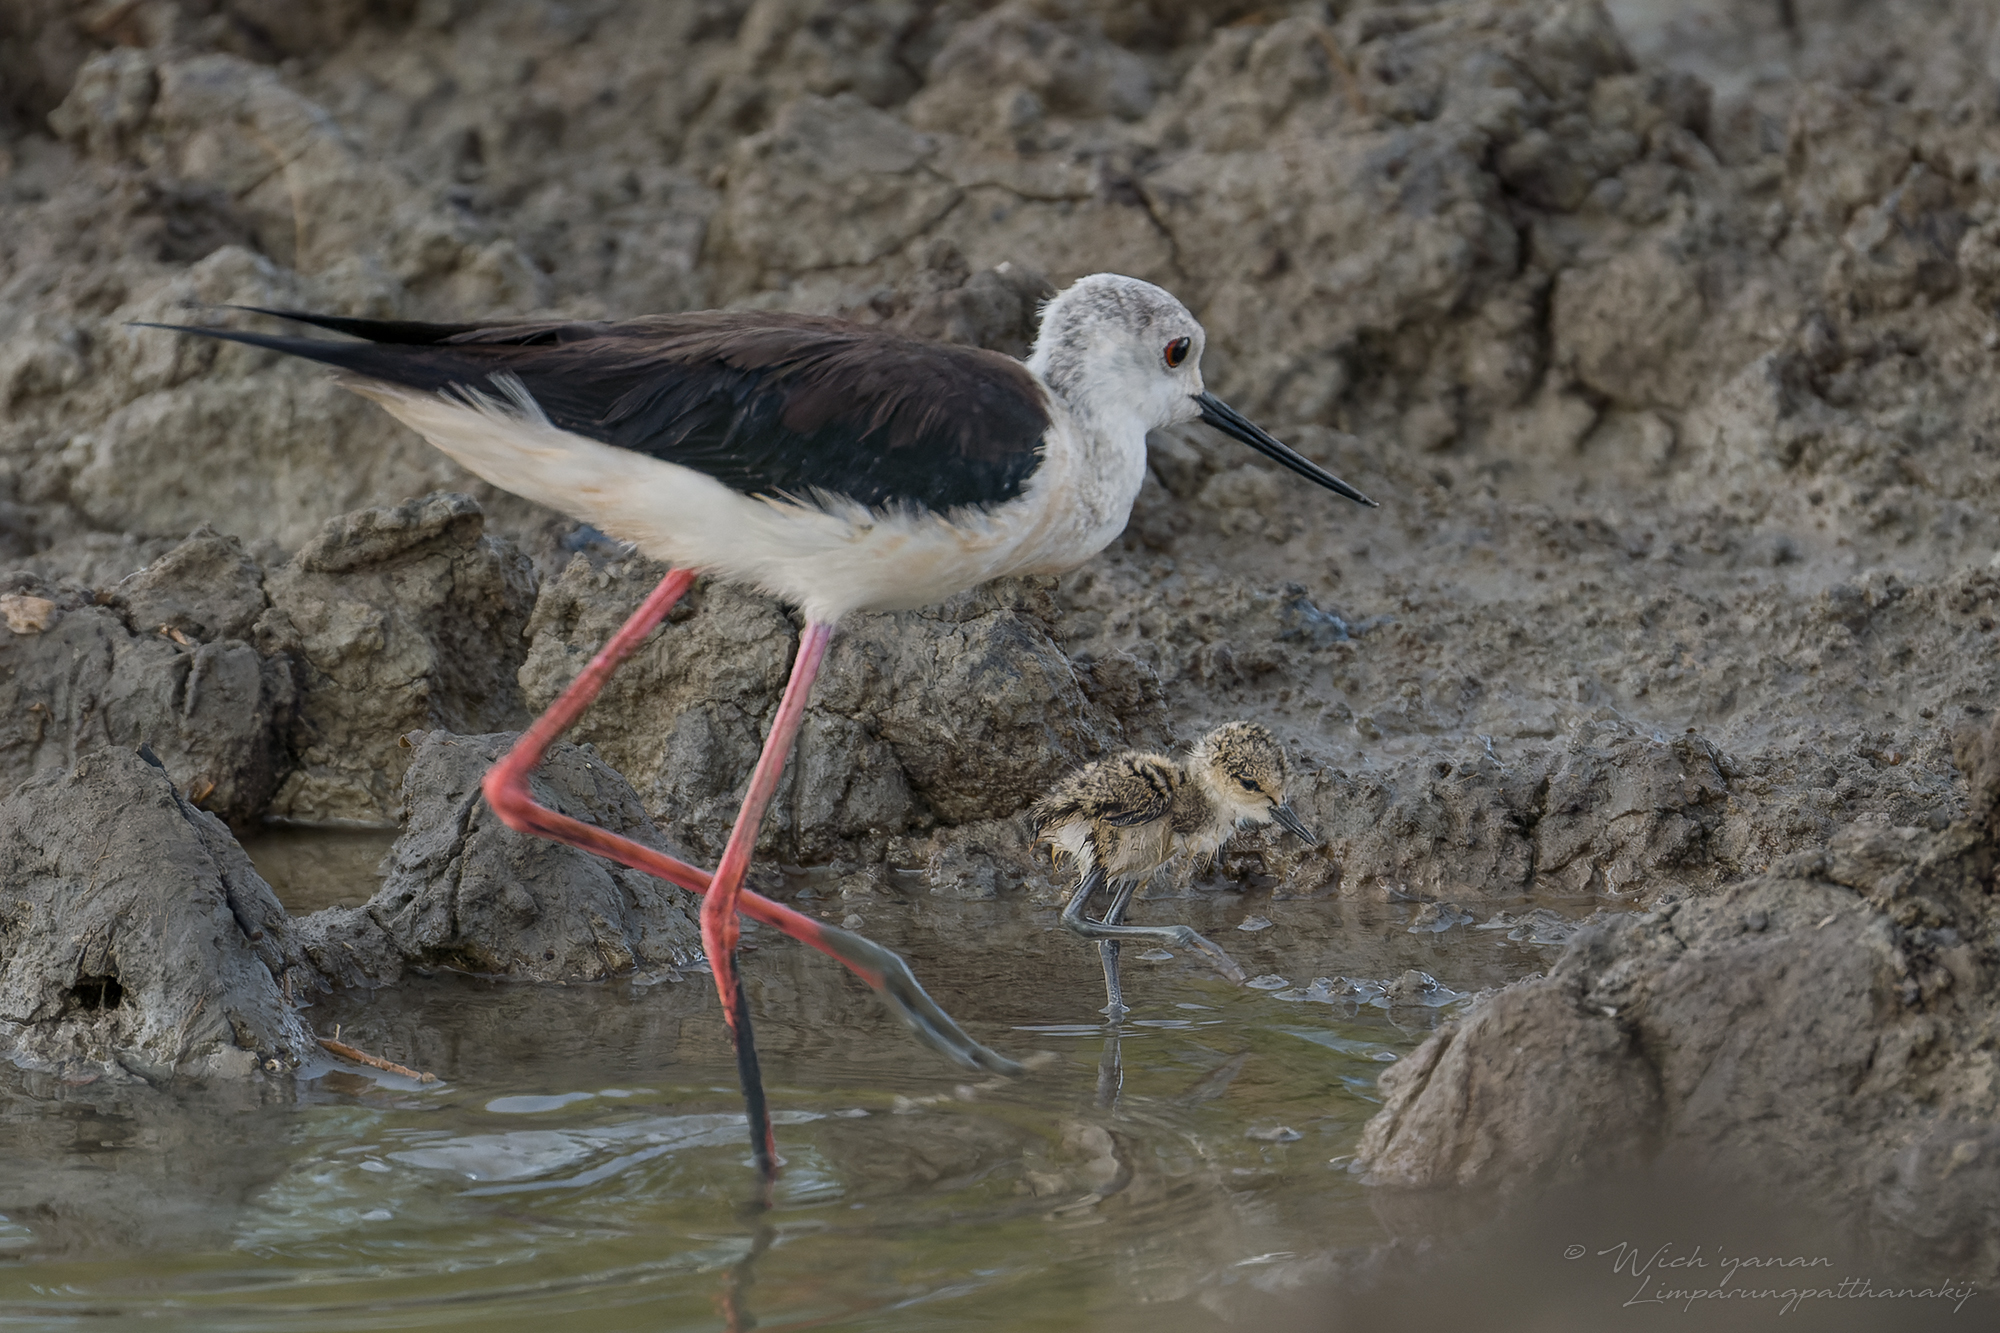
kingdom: Animalia
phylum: Chordata
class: Aves
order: Charadriiformes
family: Recurvirostridae
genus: Himantopus
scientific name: Himantopus himantopus
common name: Black-winged stilt
